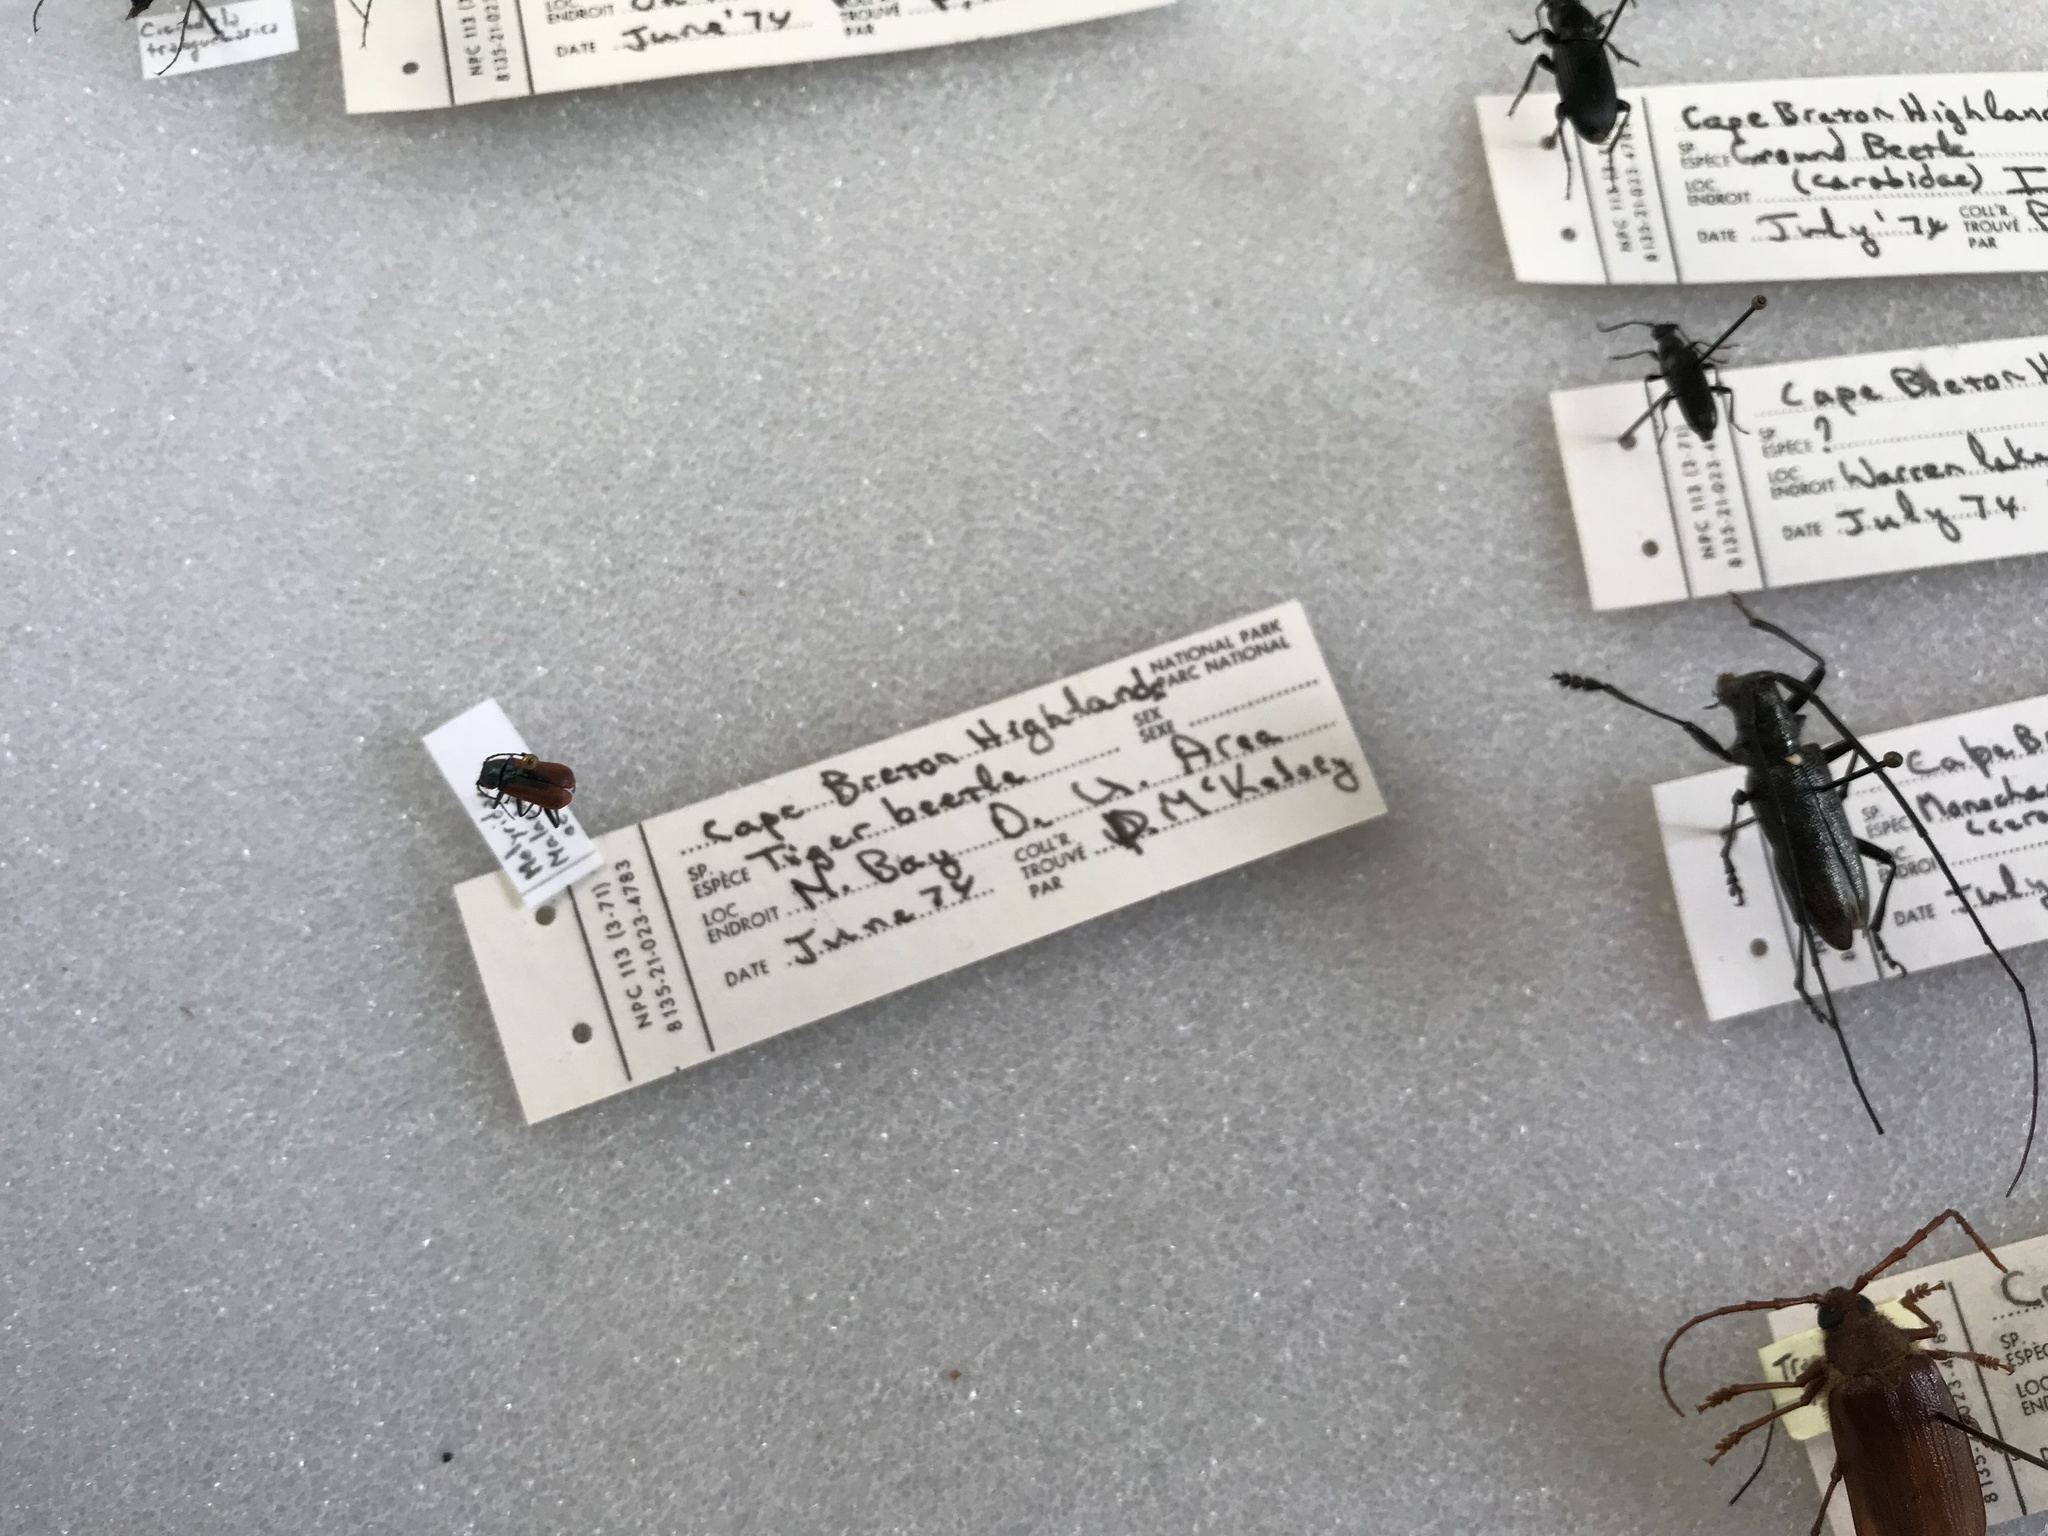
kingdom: Animalia
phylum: Arthropoda
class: Insecta
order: Coleoptera
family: Melyridae
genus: Malachius
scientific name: Malachius aeneus
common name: Scarlet malachite beetle
